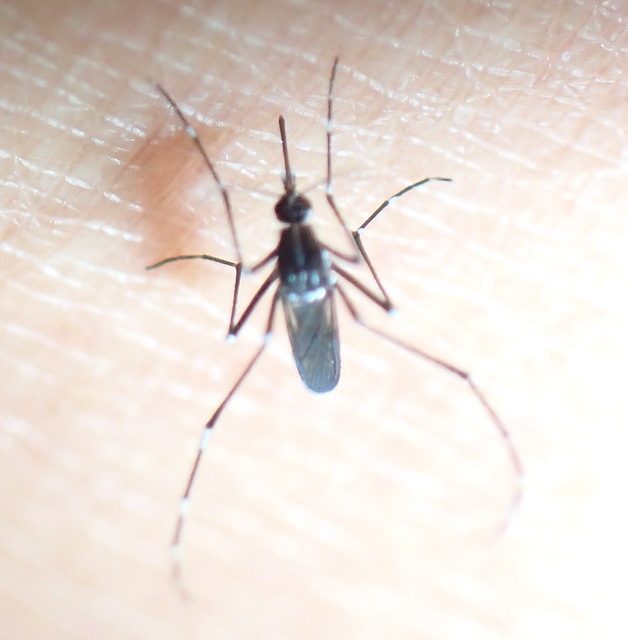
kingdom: Animalia
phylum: Arthropoda
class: Insecta
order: Diptera
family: Culicidae
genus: Aedes
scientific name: Aedes albopictus
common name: Tiger mosquito
